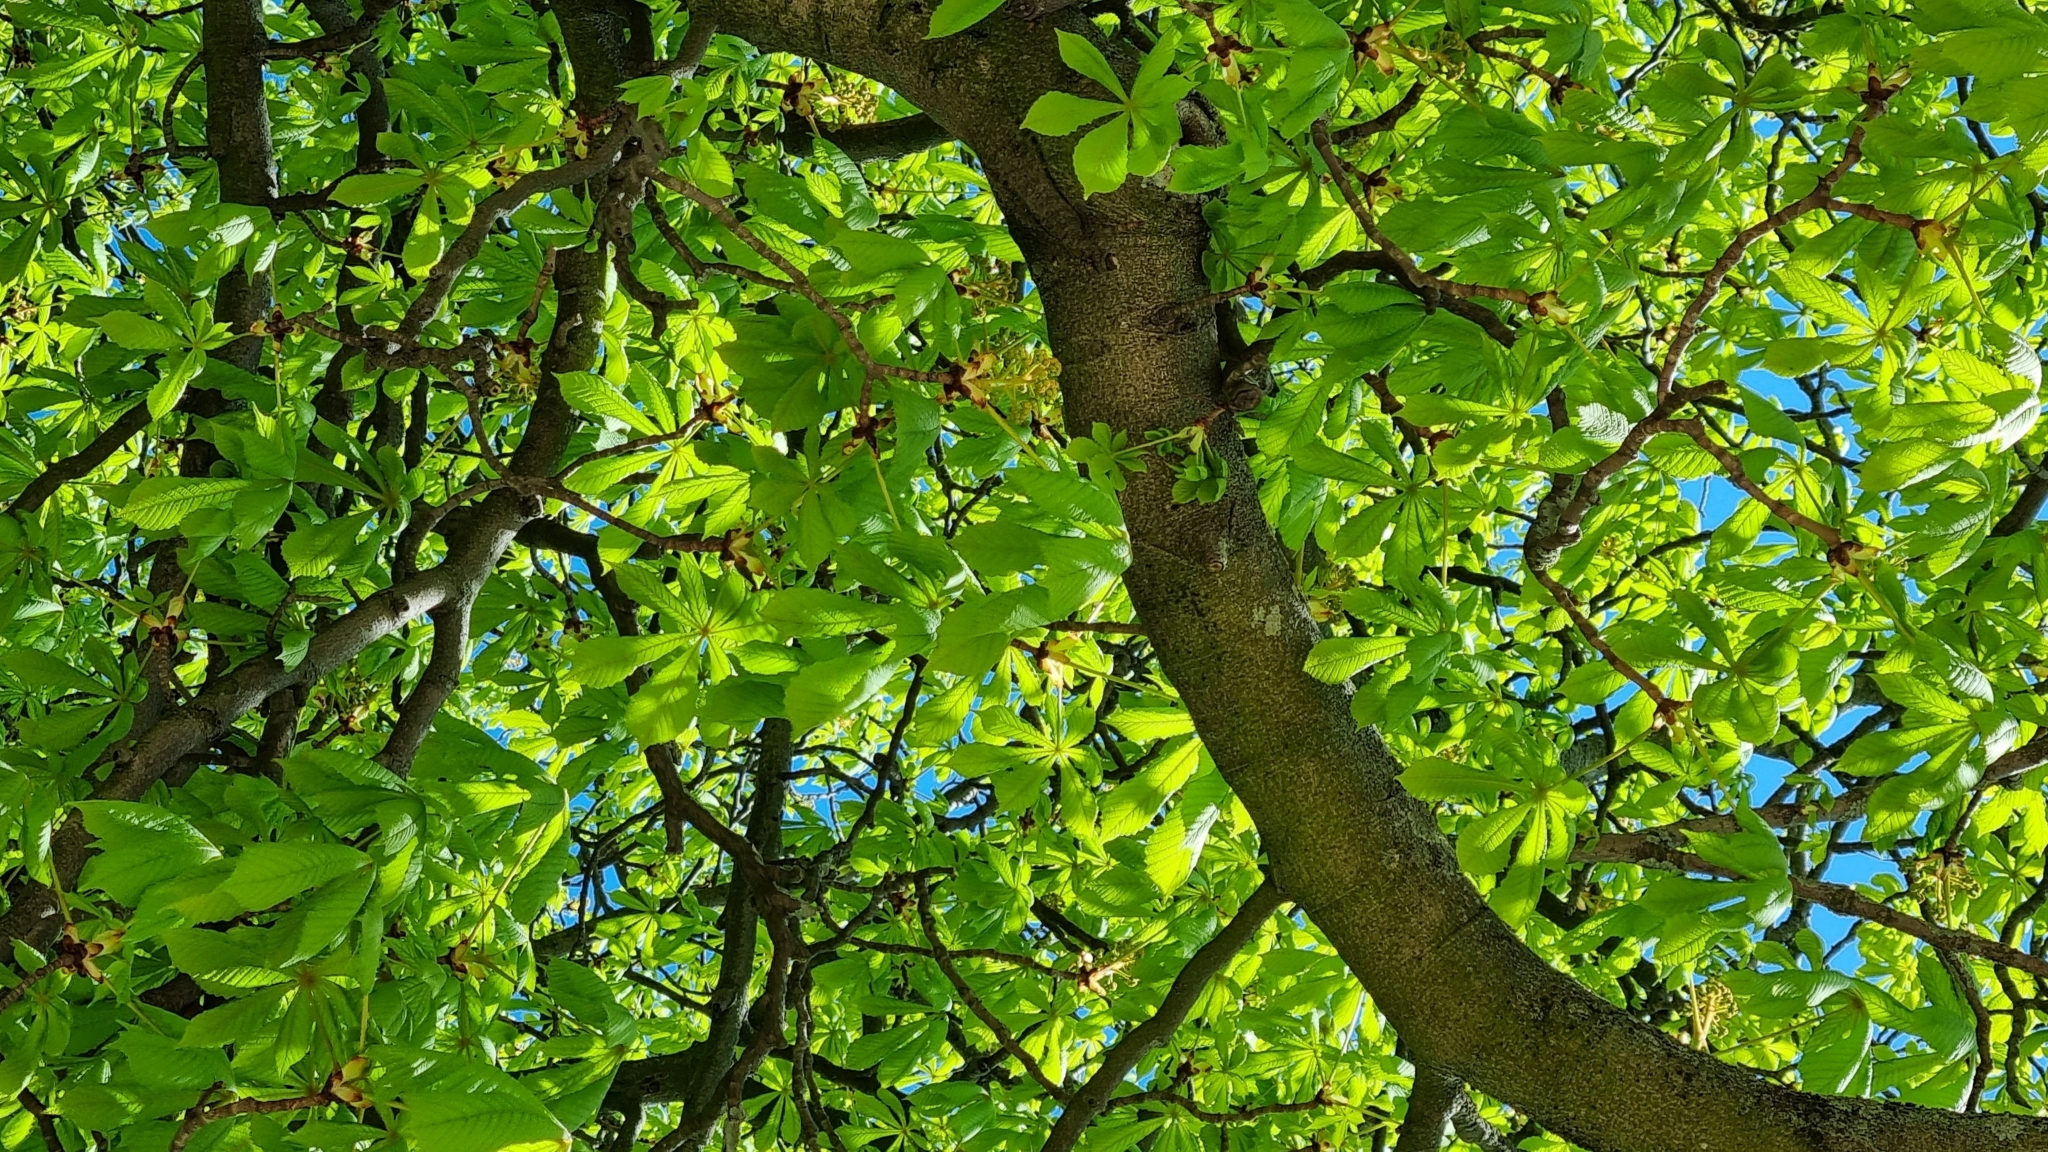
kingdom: Plantae
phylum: Tracheophyta
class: Magnoliopsida
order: Sapindales
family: Sapindaceae
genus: Aesculus
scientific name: Aesculus hippocastanum
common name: Horse-chestnut
